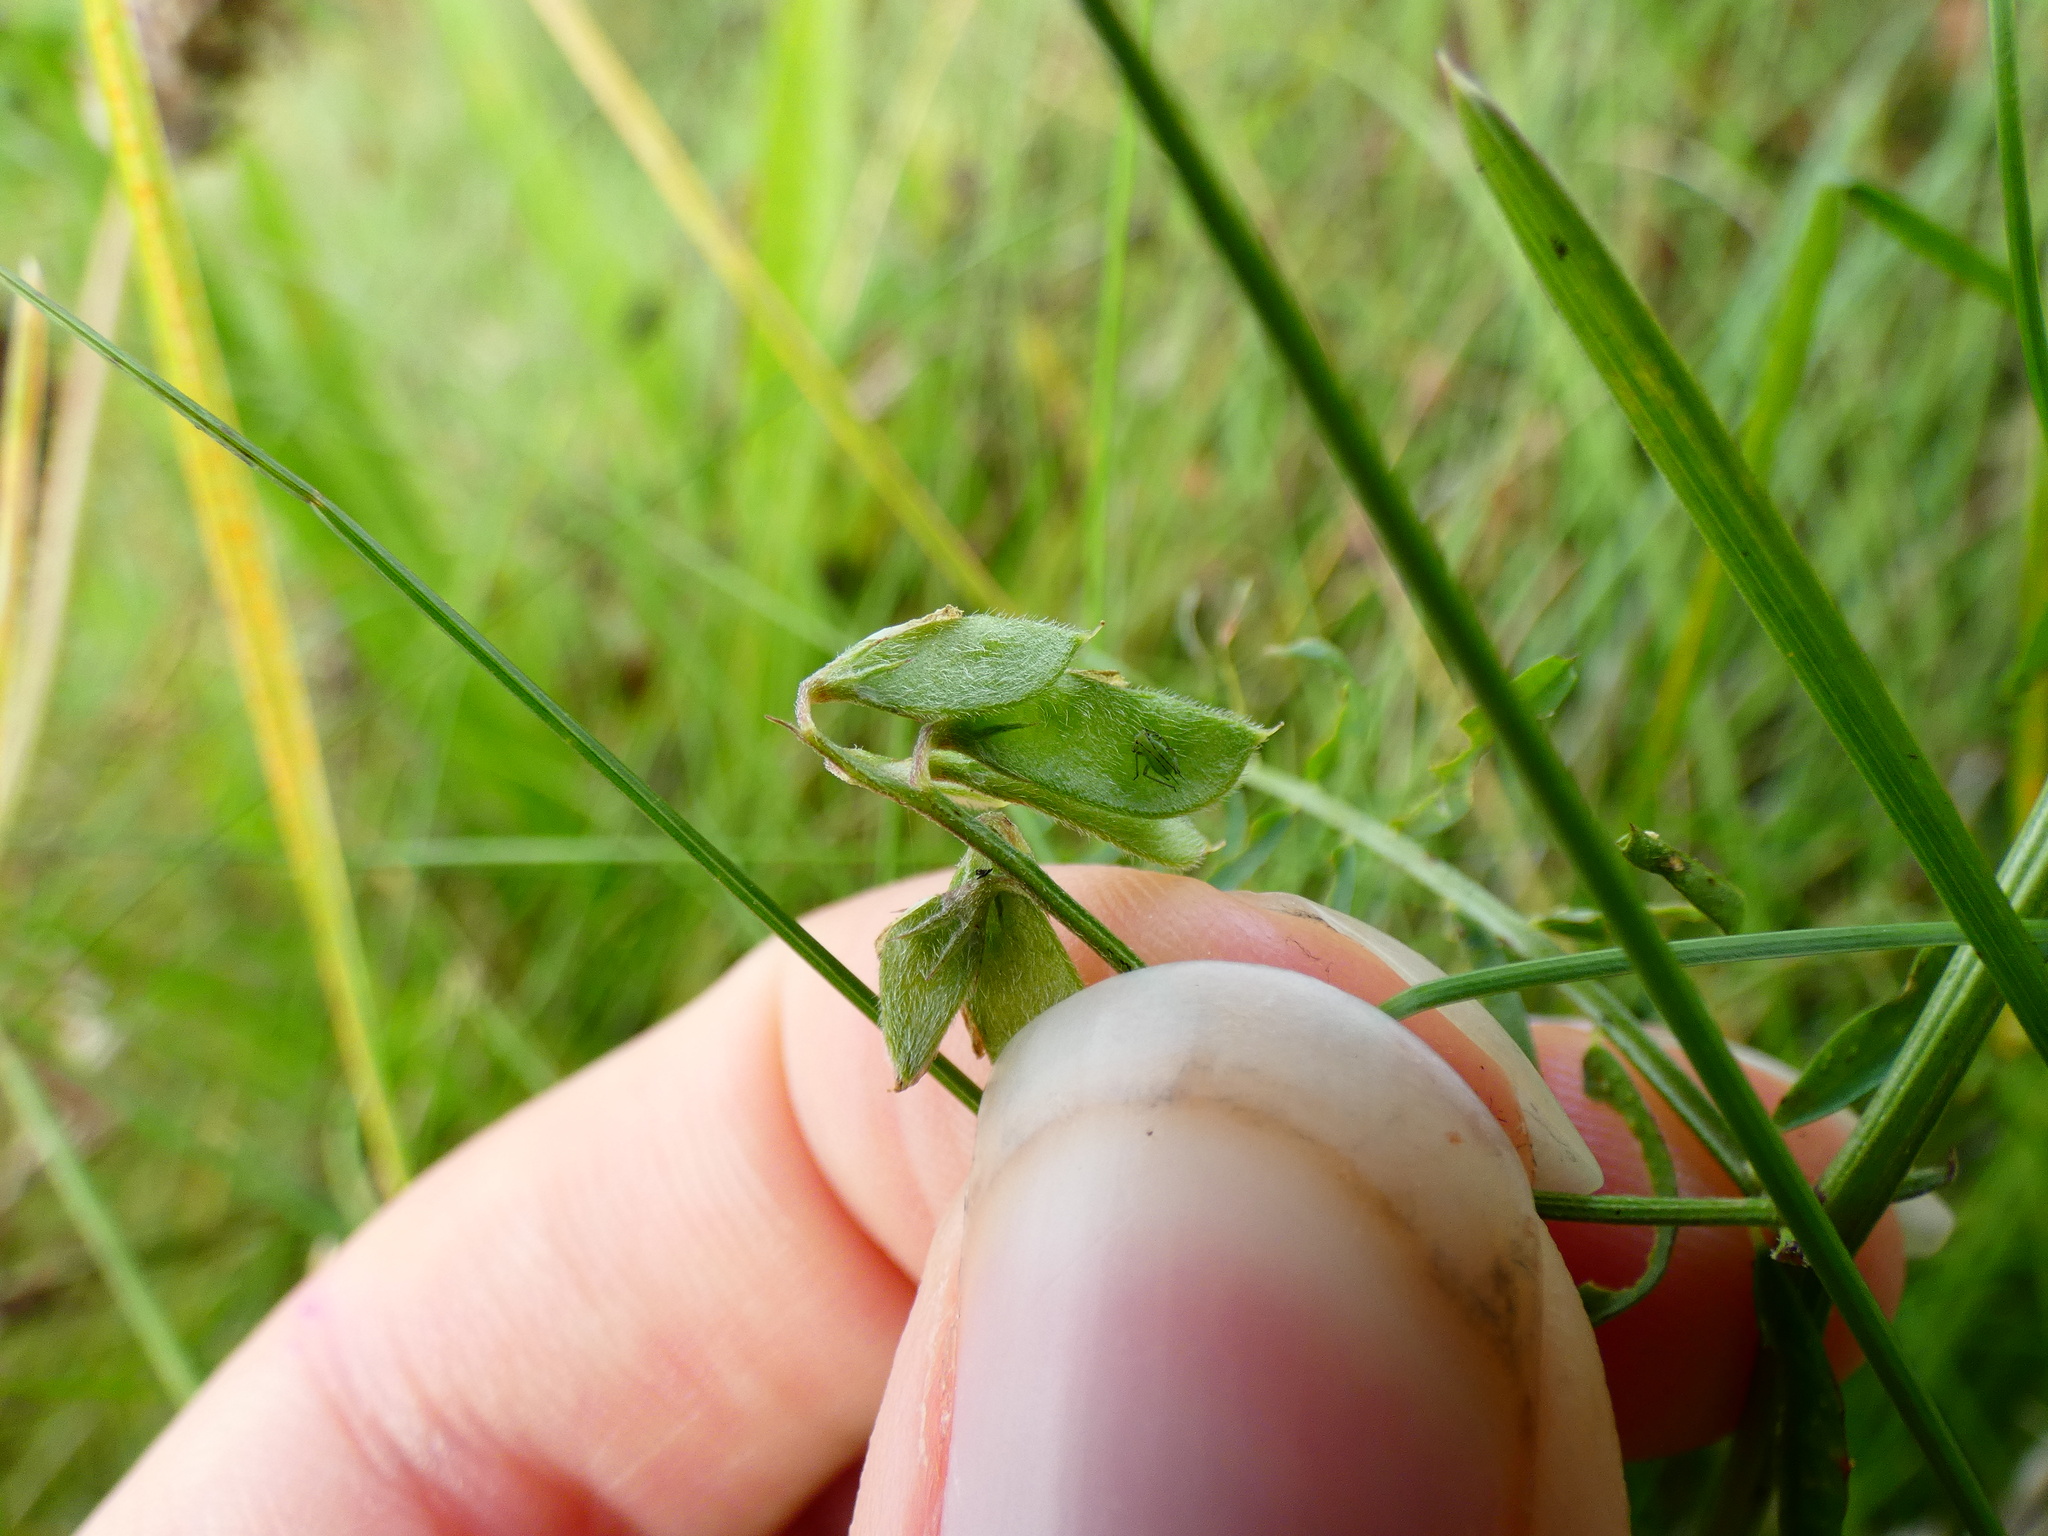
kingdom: Plantae
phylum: Tracheophyta
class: Magnoliopsida
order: Fabales
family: Fabaceae
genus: Vicia
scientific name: Vicia hirsuta
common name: Tiny vetch
